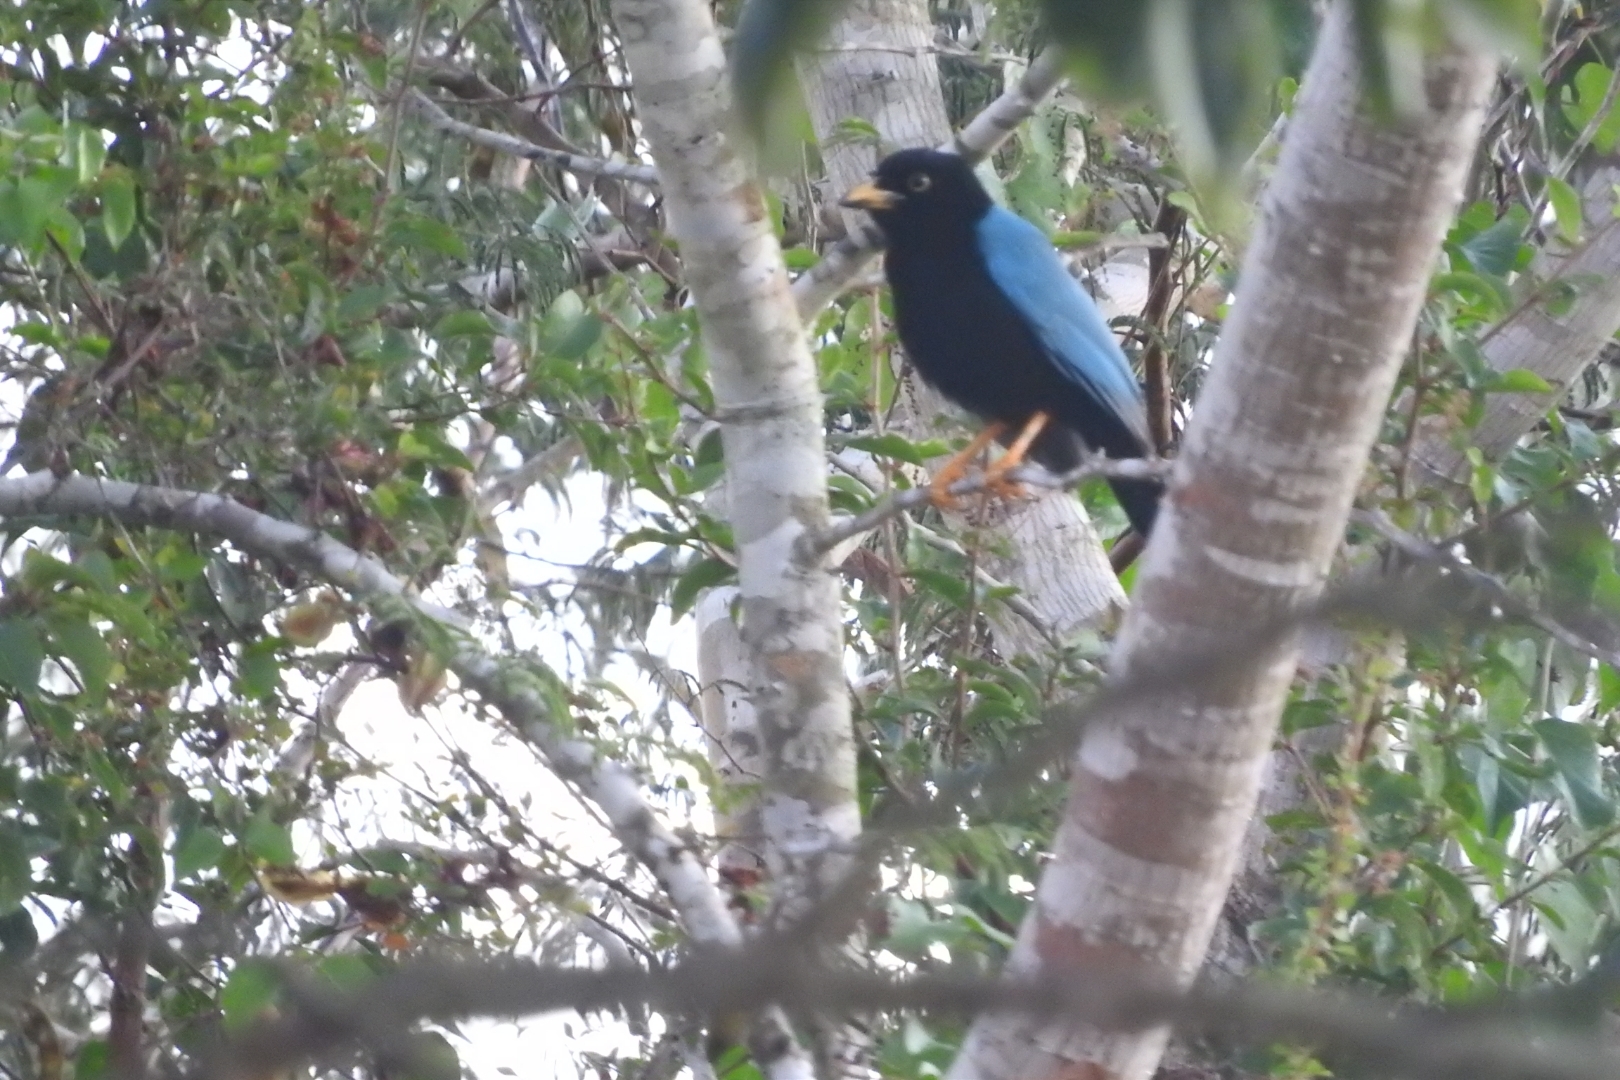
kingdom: Animalia
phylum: Chordata
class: Aves
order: Passeriformes
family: Corvidae
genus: Cyanocorax
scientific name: Cyanocorax yucatanicus
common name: Yucatan jay
